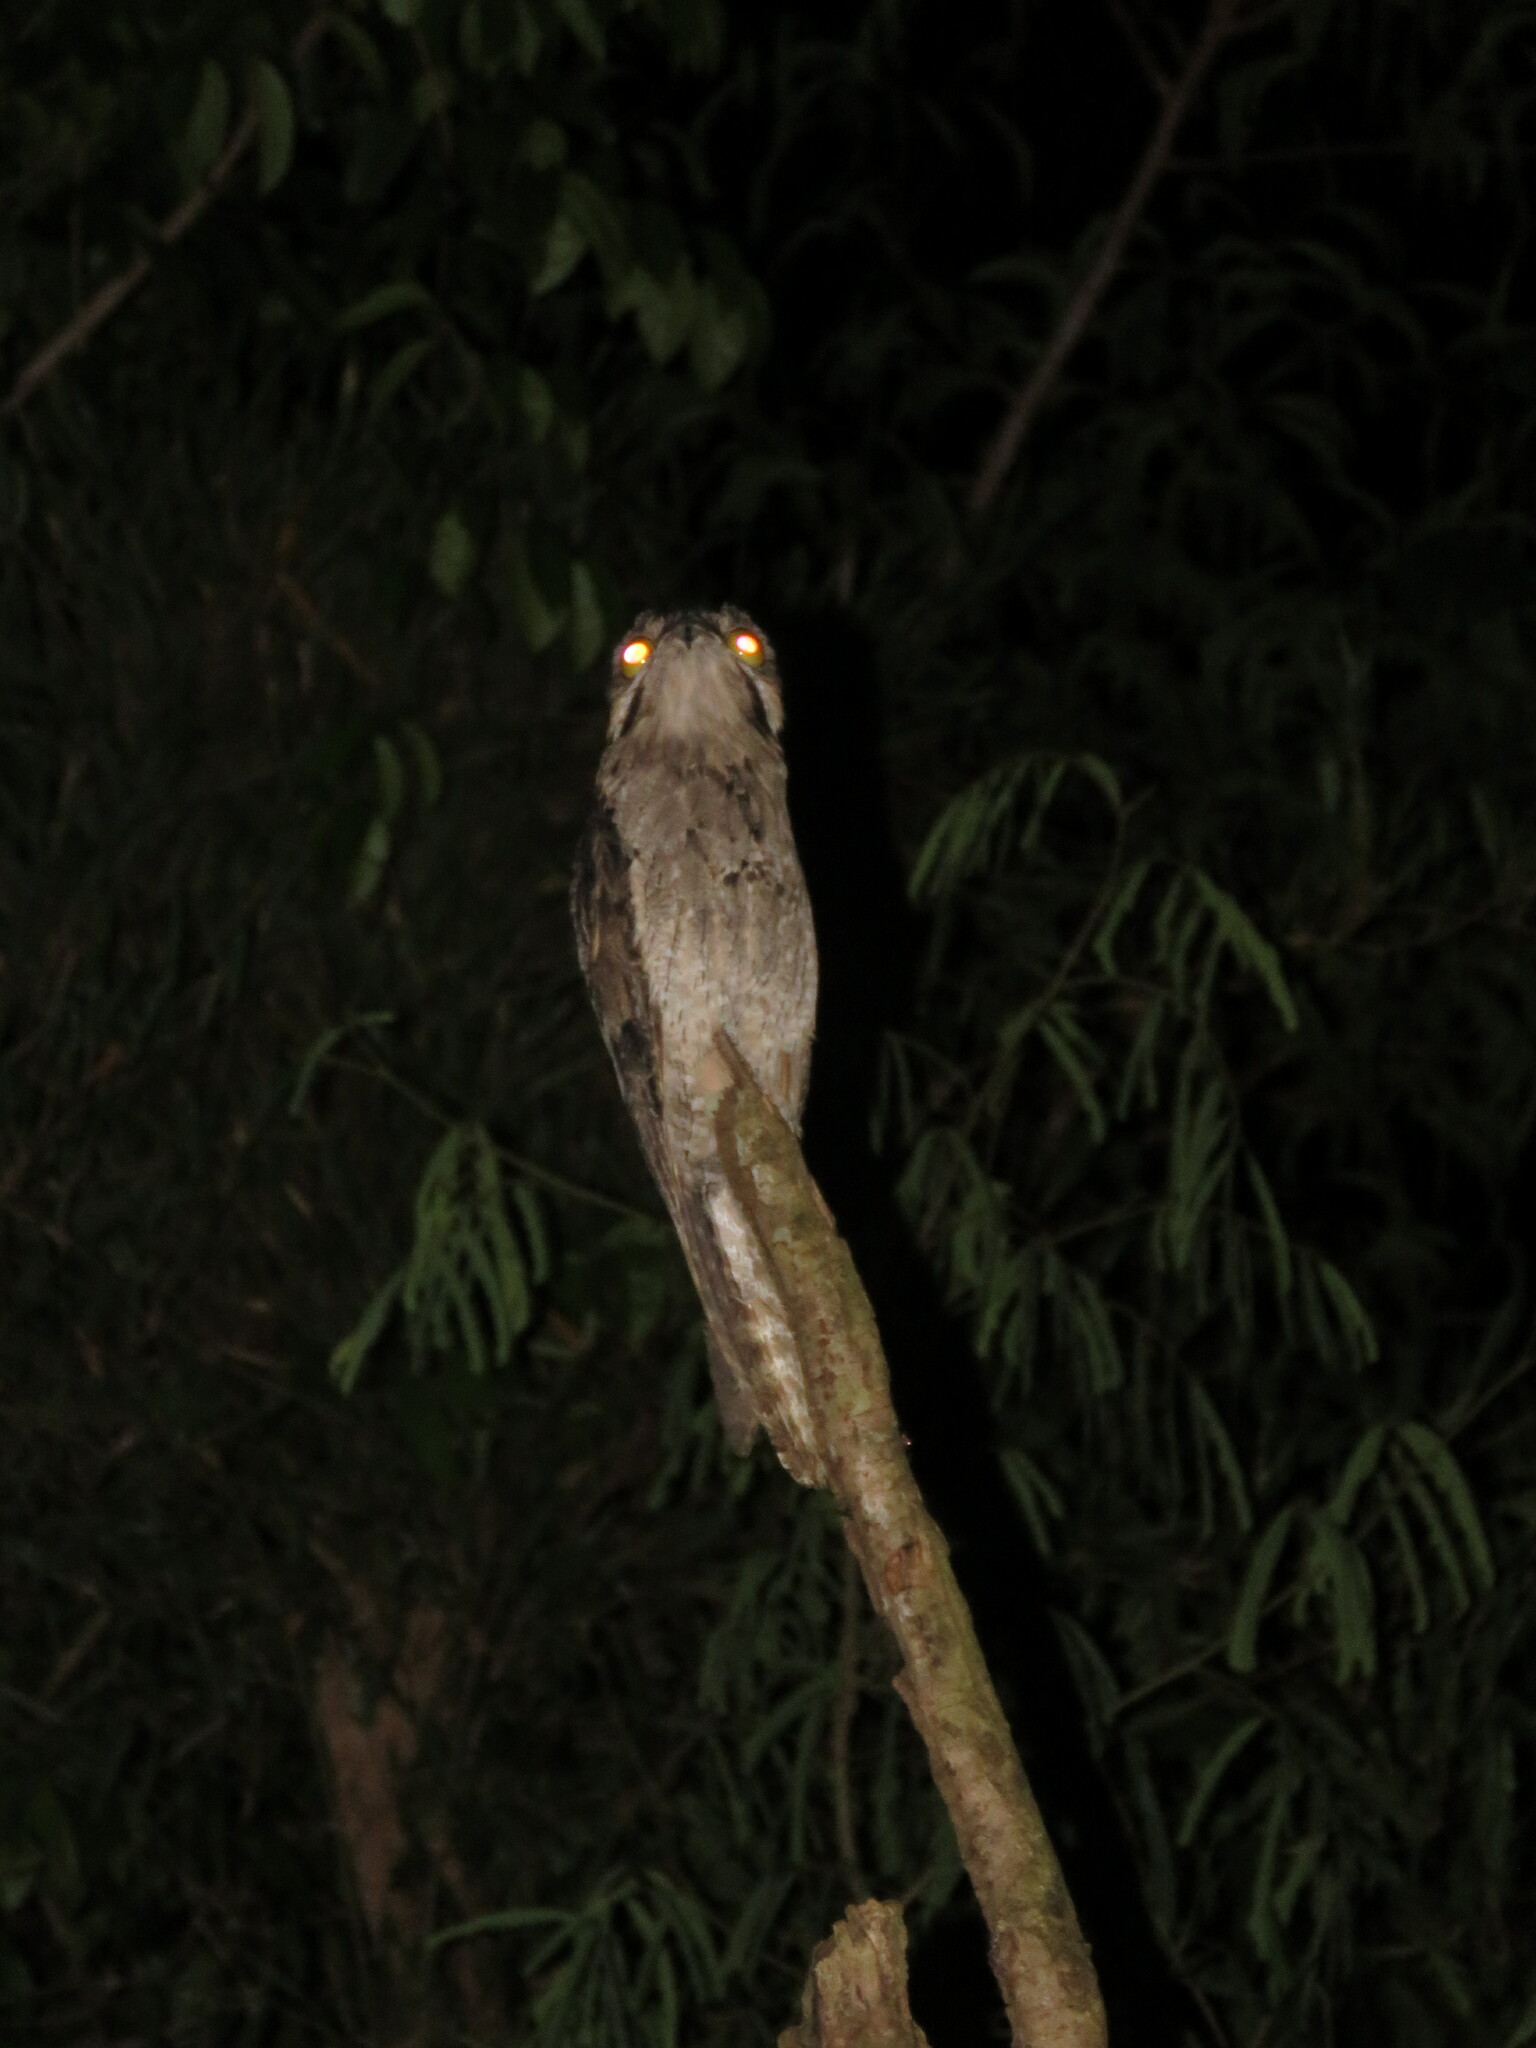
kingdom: Animalia
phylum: Chordata
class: Aves
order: Nyctibiiformes
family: Nyctibiidae
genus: Nyctibius
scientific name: Nyctibius griseus
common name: Common potoo
